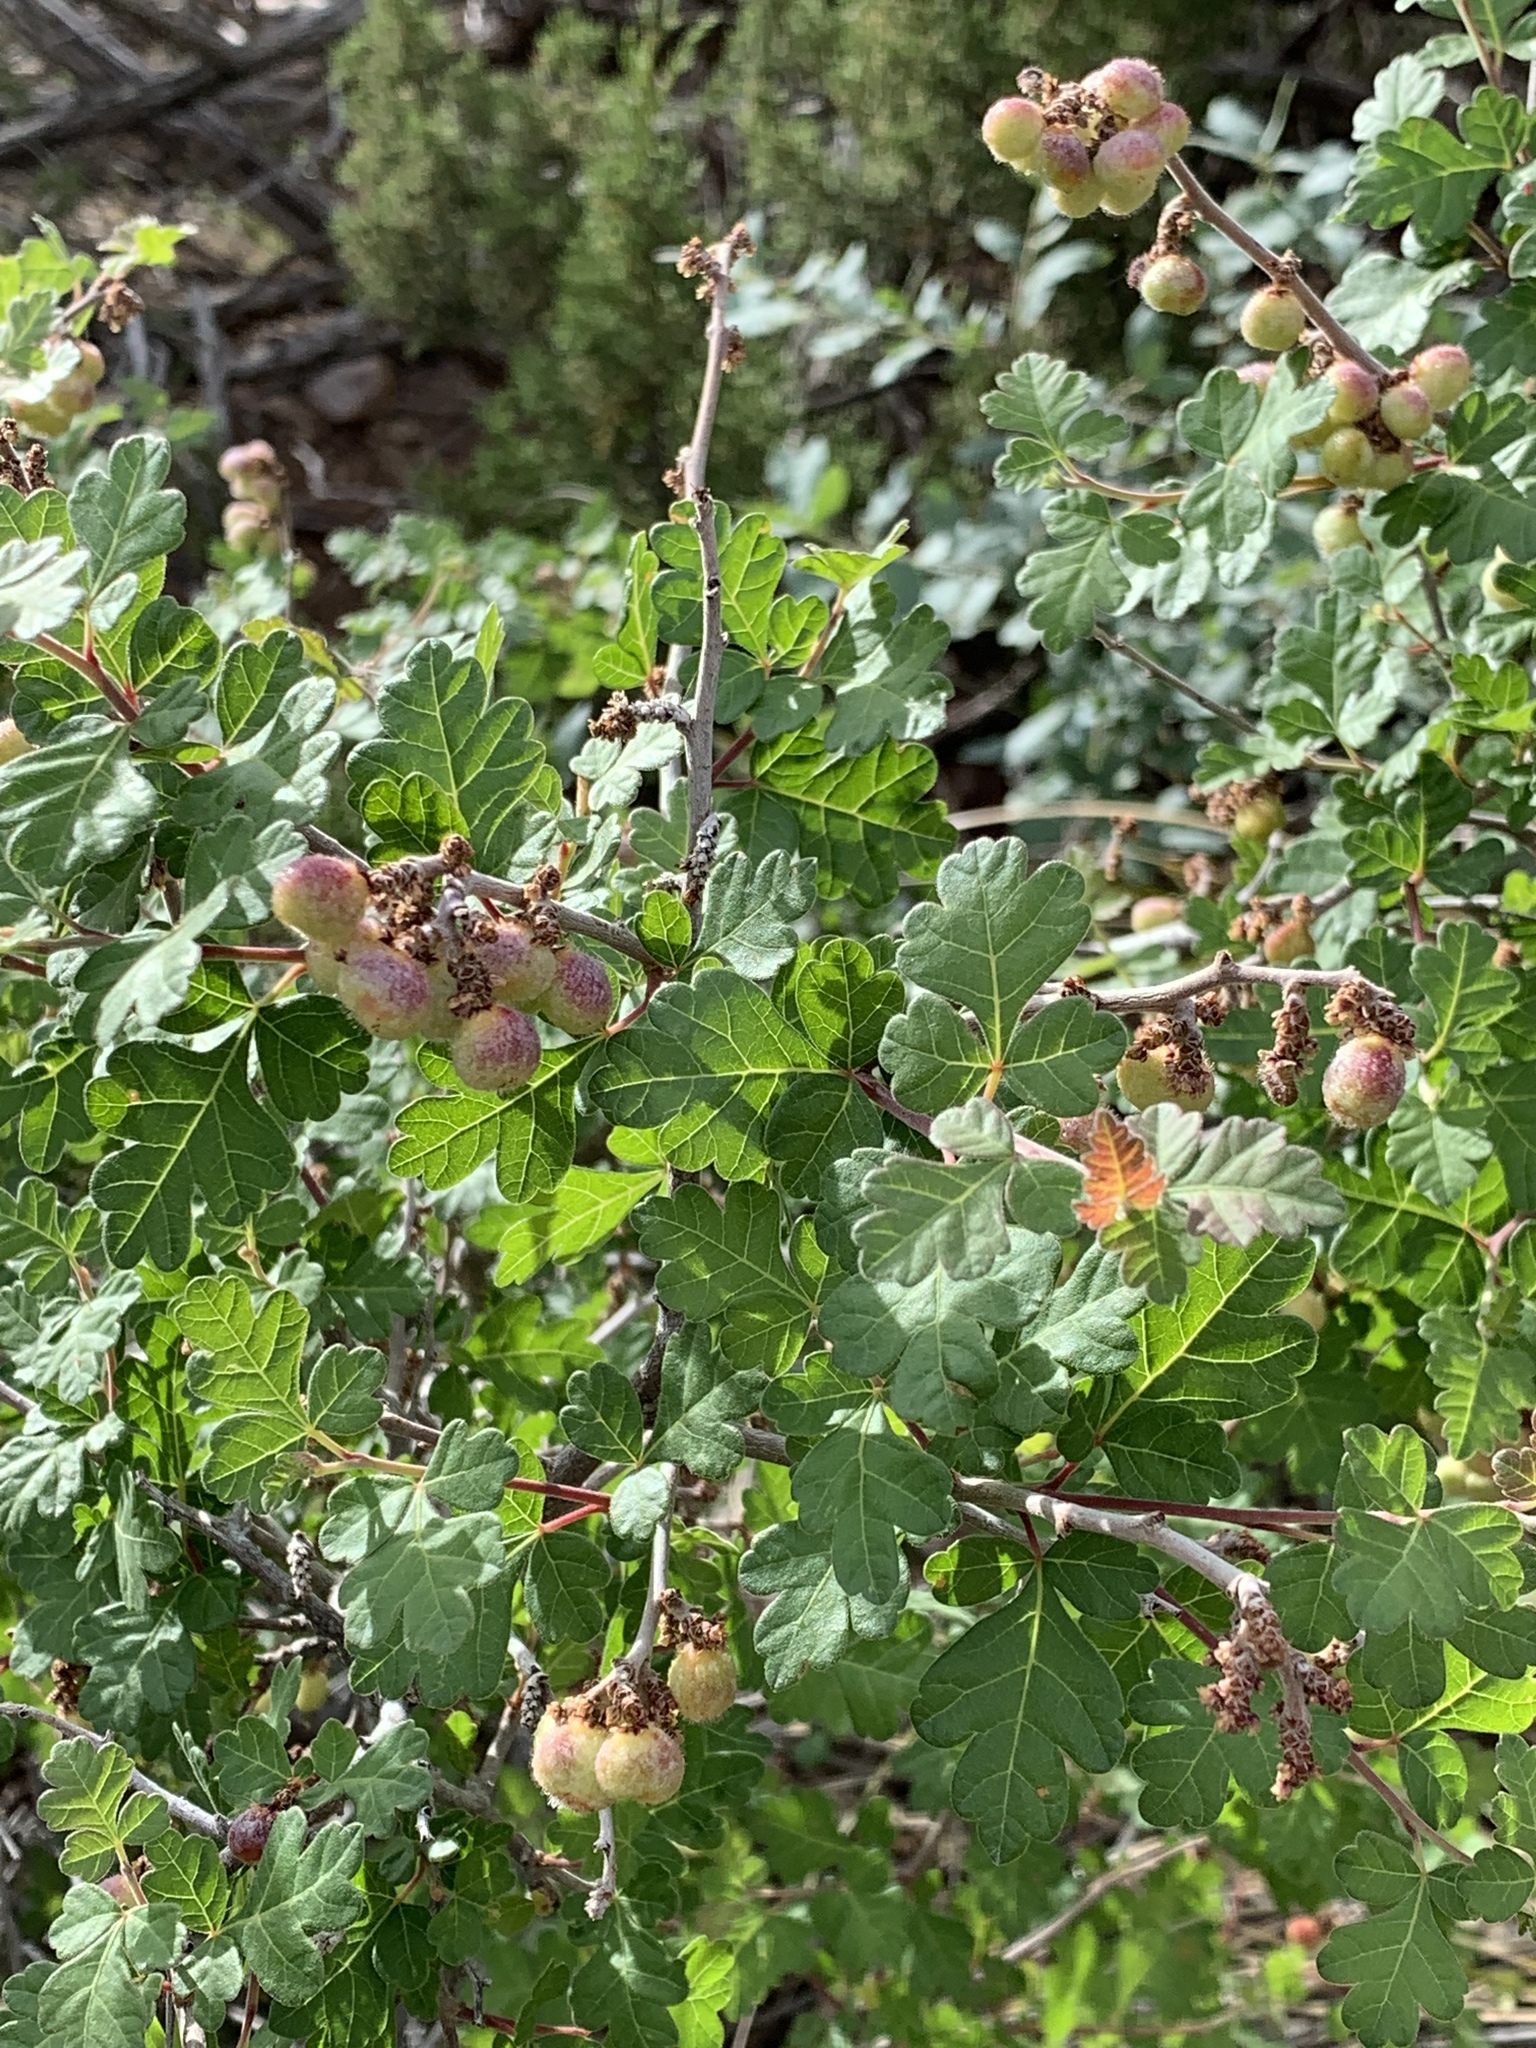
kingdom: Plantae
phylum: Tracheophyta
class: Magnoliopsida
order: Sapindales
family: Anacardiaceae
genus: Rhus
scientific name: Rhus aromatica
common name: Aromatic sumac
